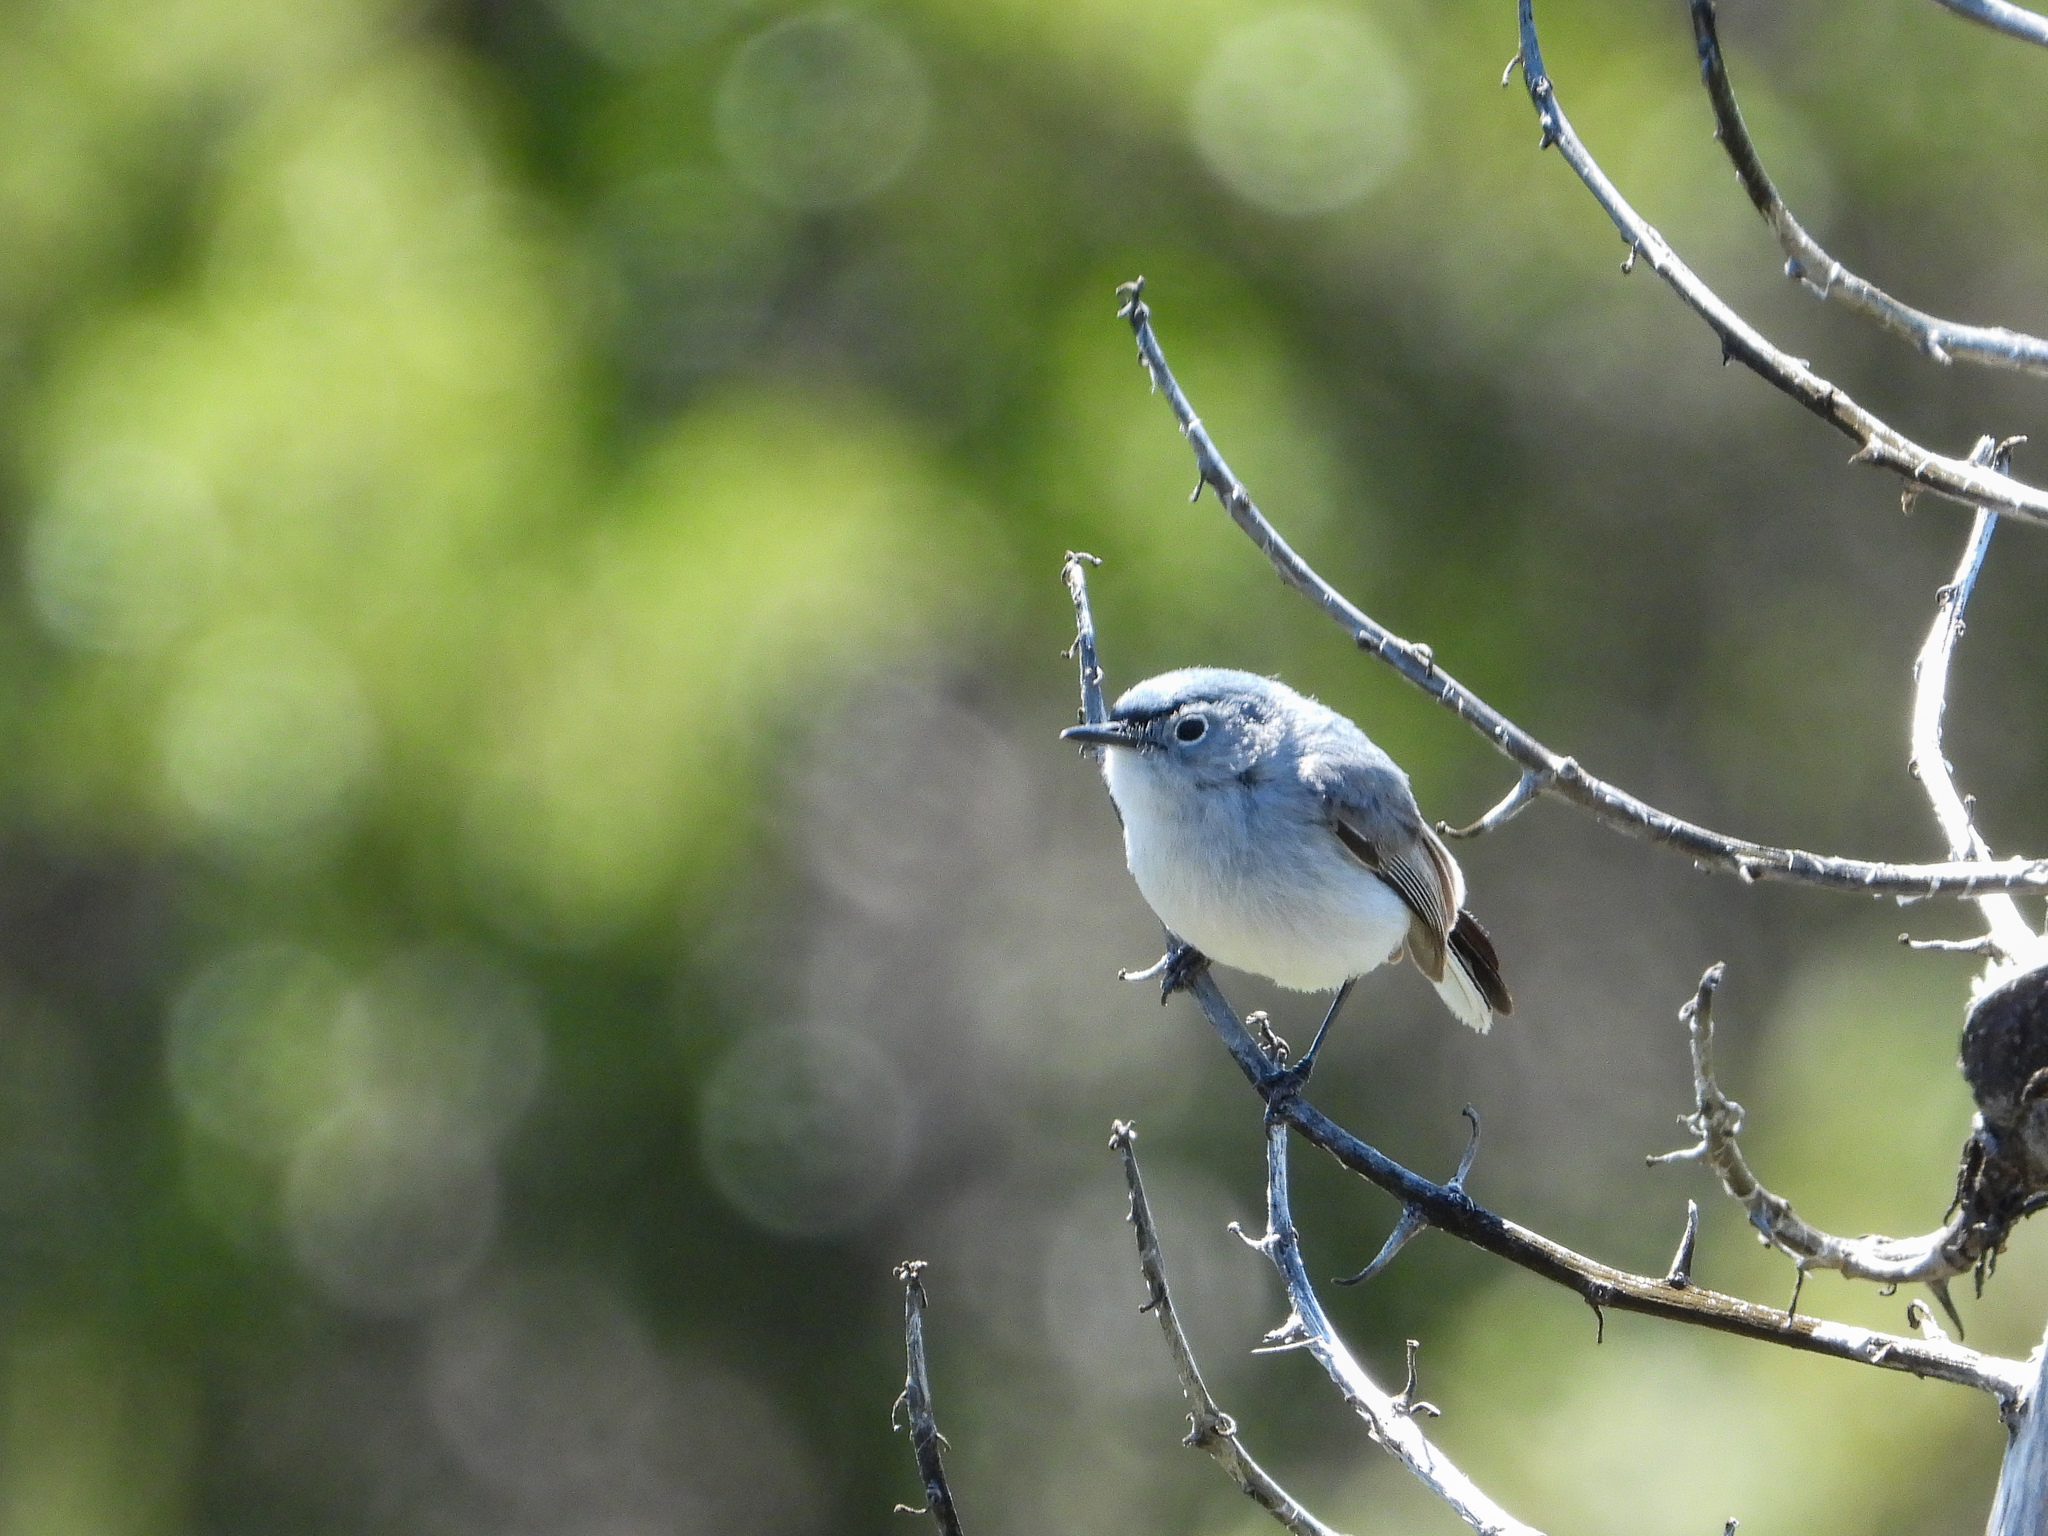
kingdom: Animalia
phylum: Chordata
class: Aves
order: Passeriformes
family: Polioptilidae
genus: Polioptila
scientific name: Polioptila caerulea
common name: Blue-gray gnatcatcher
